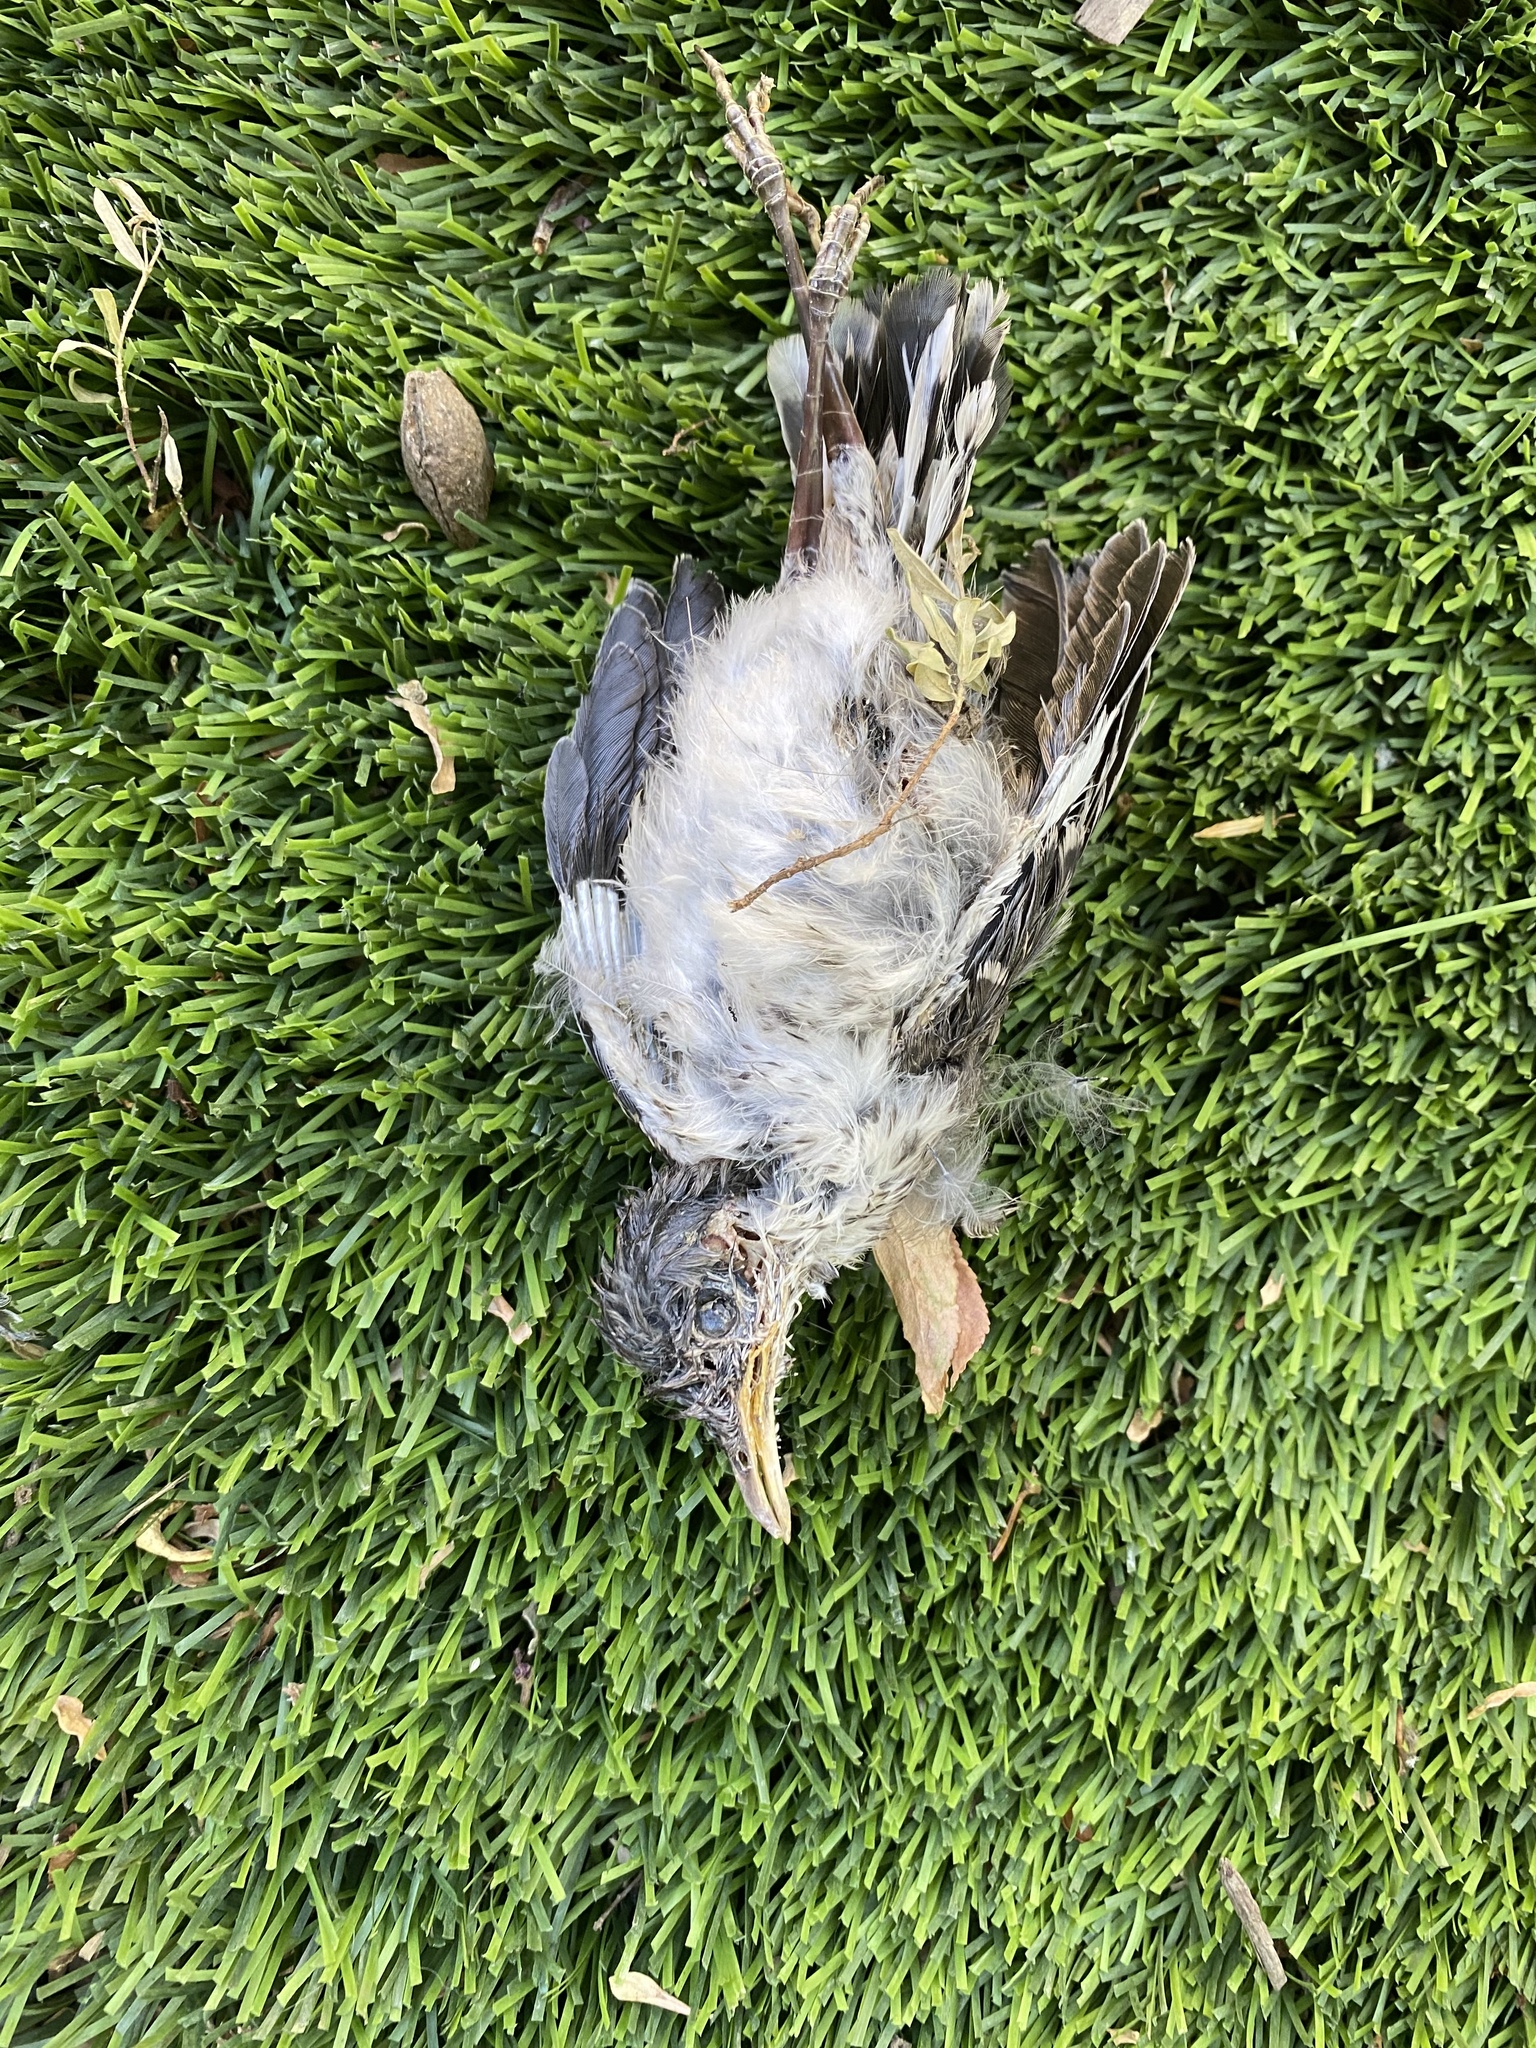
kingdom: Animalia
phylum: Chordata
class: Aves
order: Passeriformes
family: Mimidae
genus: Mimus
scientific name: Mimus polyglottos
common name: Northern mockingbird
